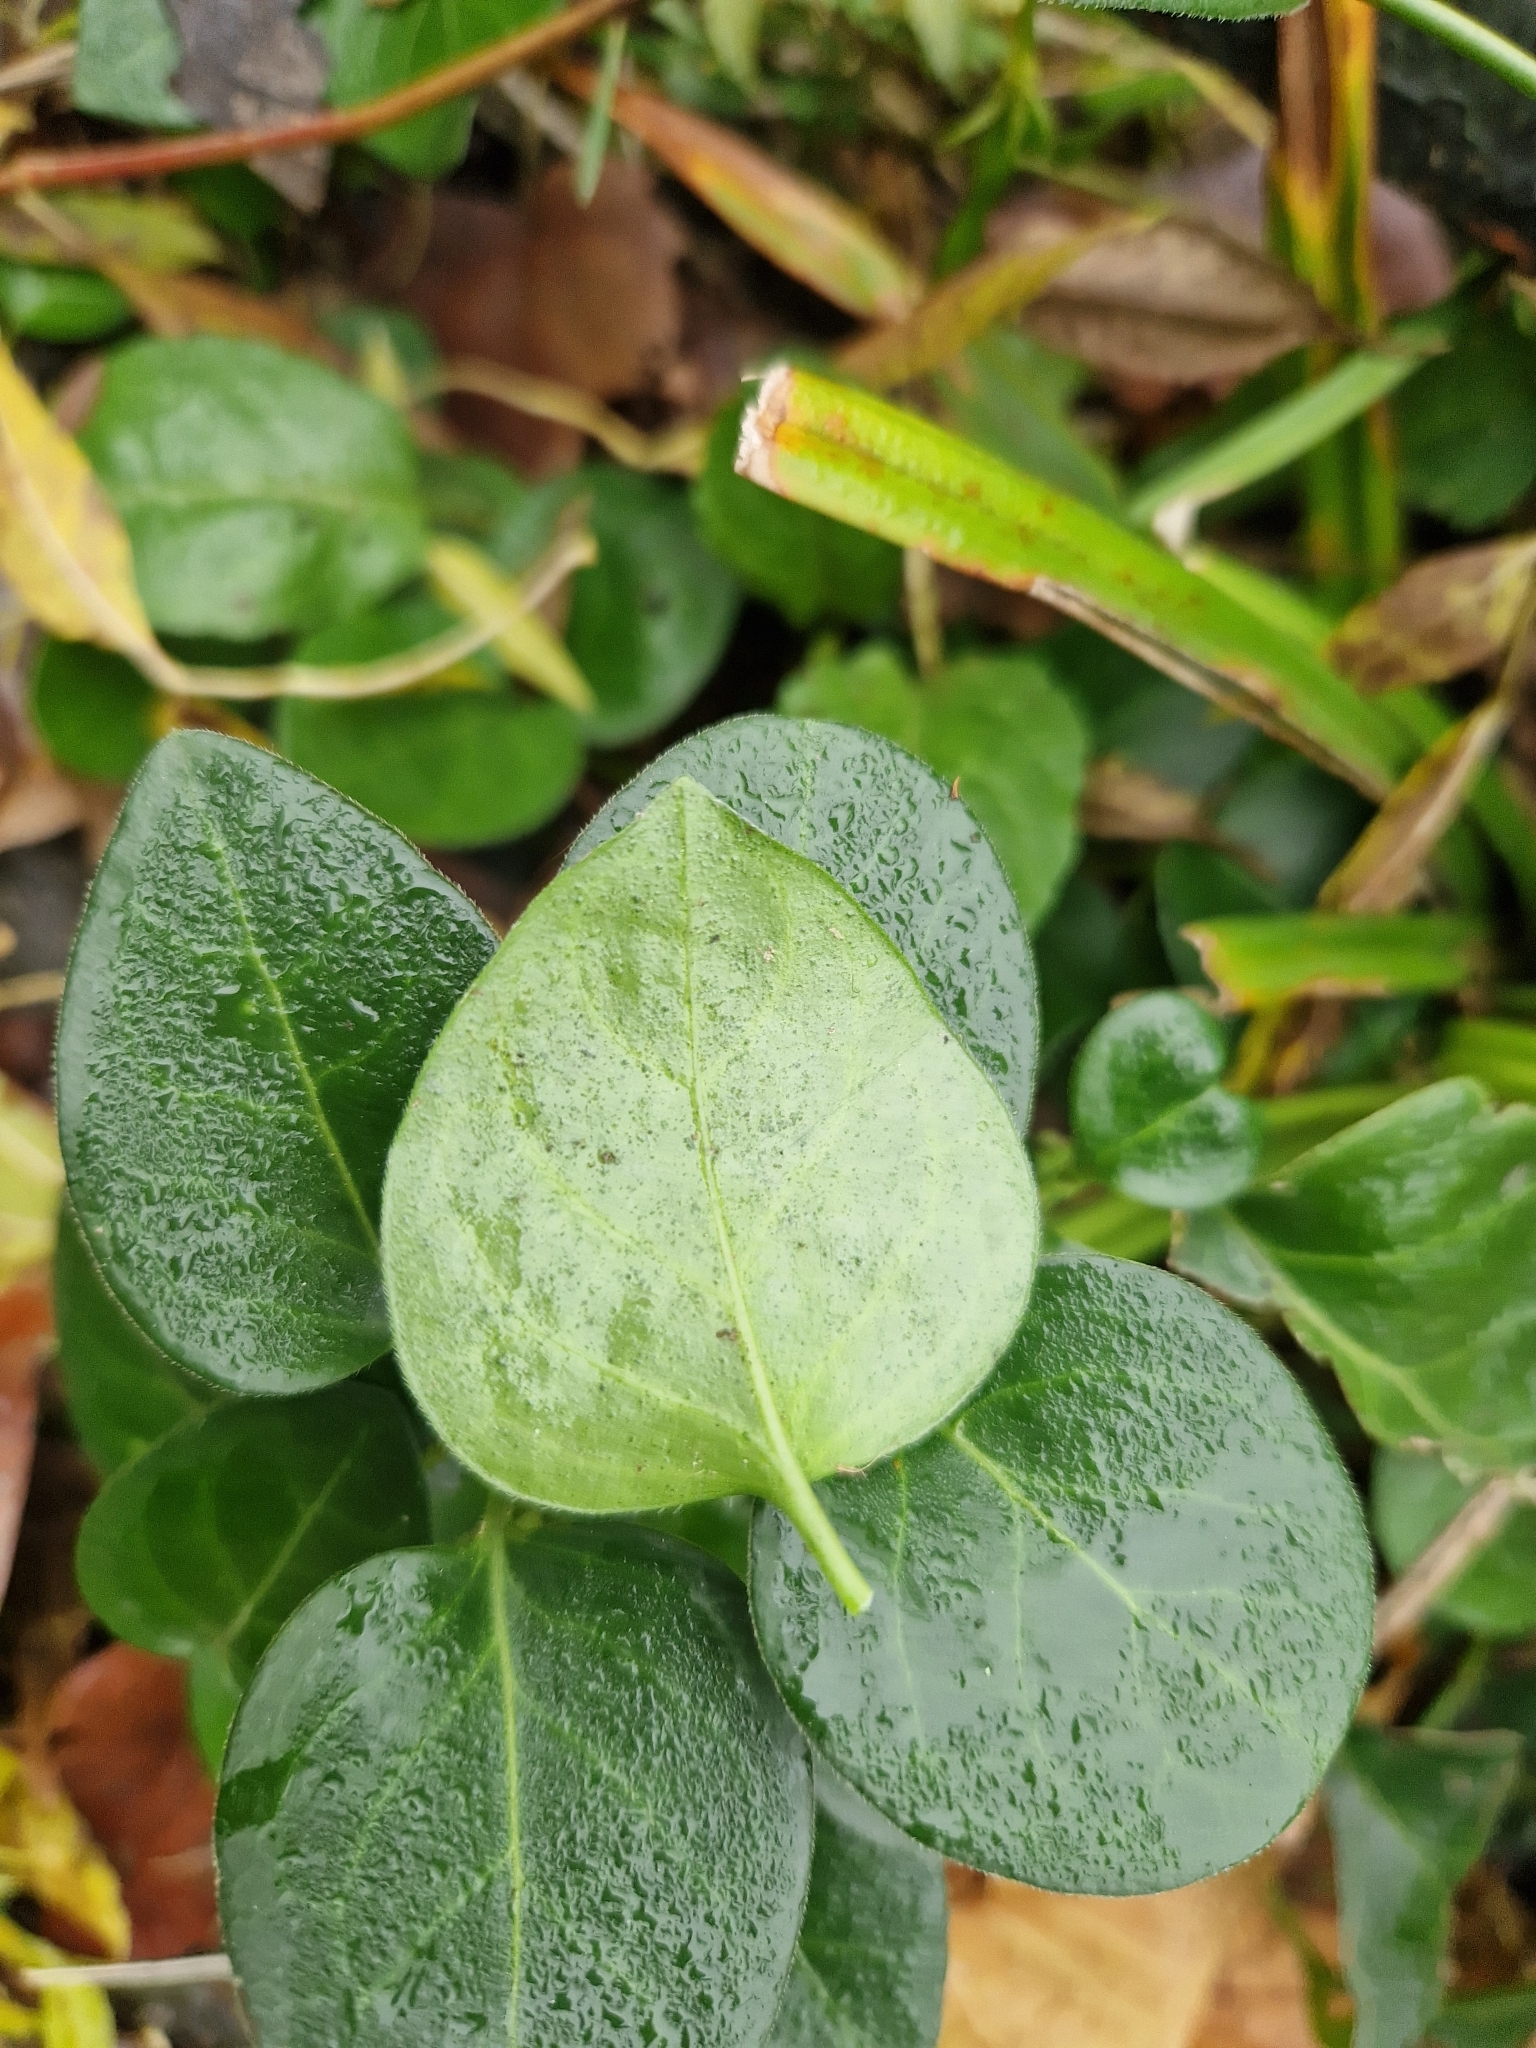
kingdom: Plantae
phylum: Tracheophyta
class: Magnoliopsida
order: Gentianales
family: Apocynaceae
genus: Vinca
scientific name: Vinca major
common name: Greater periwinkle
